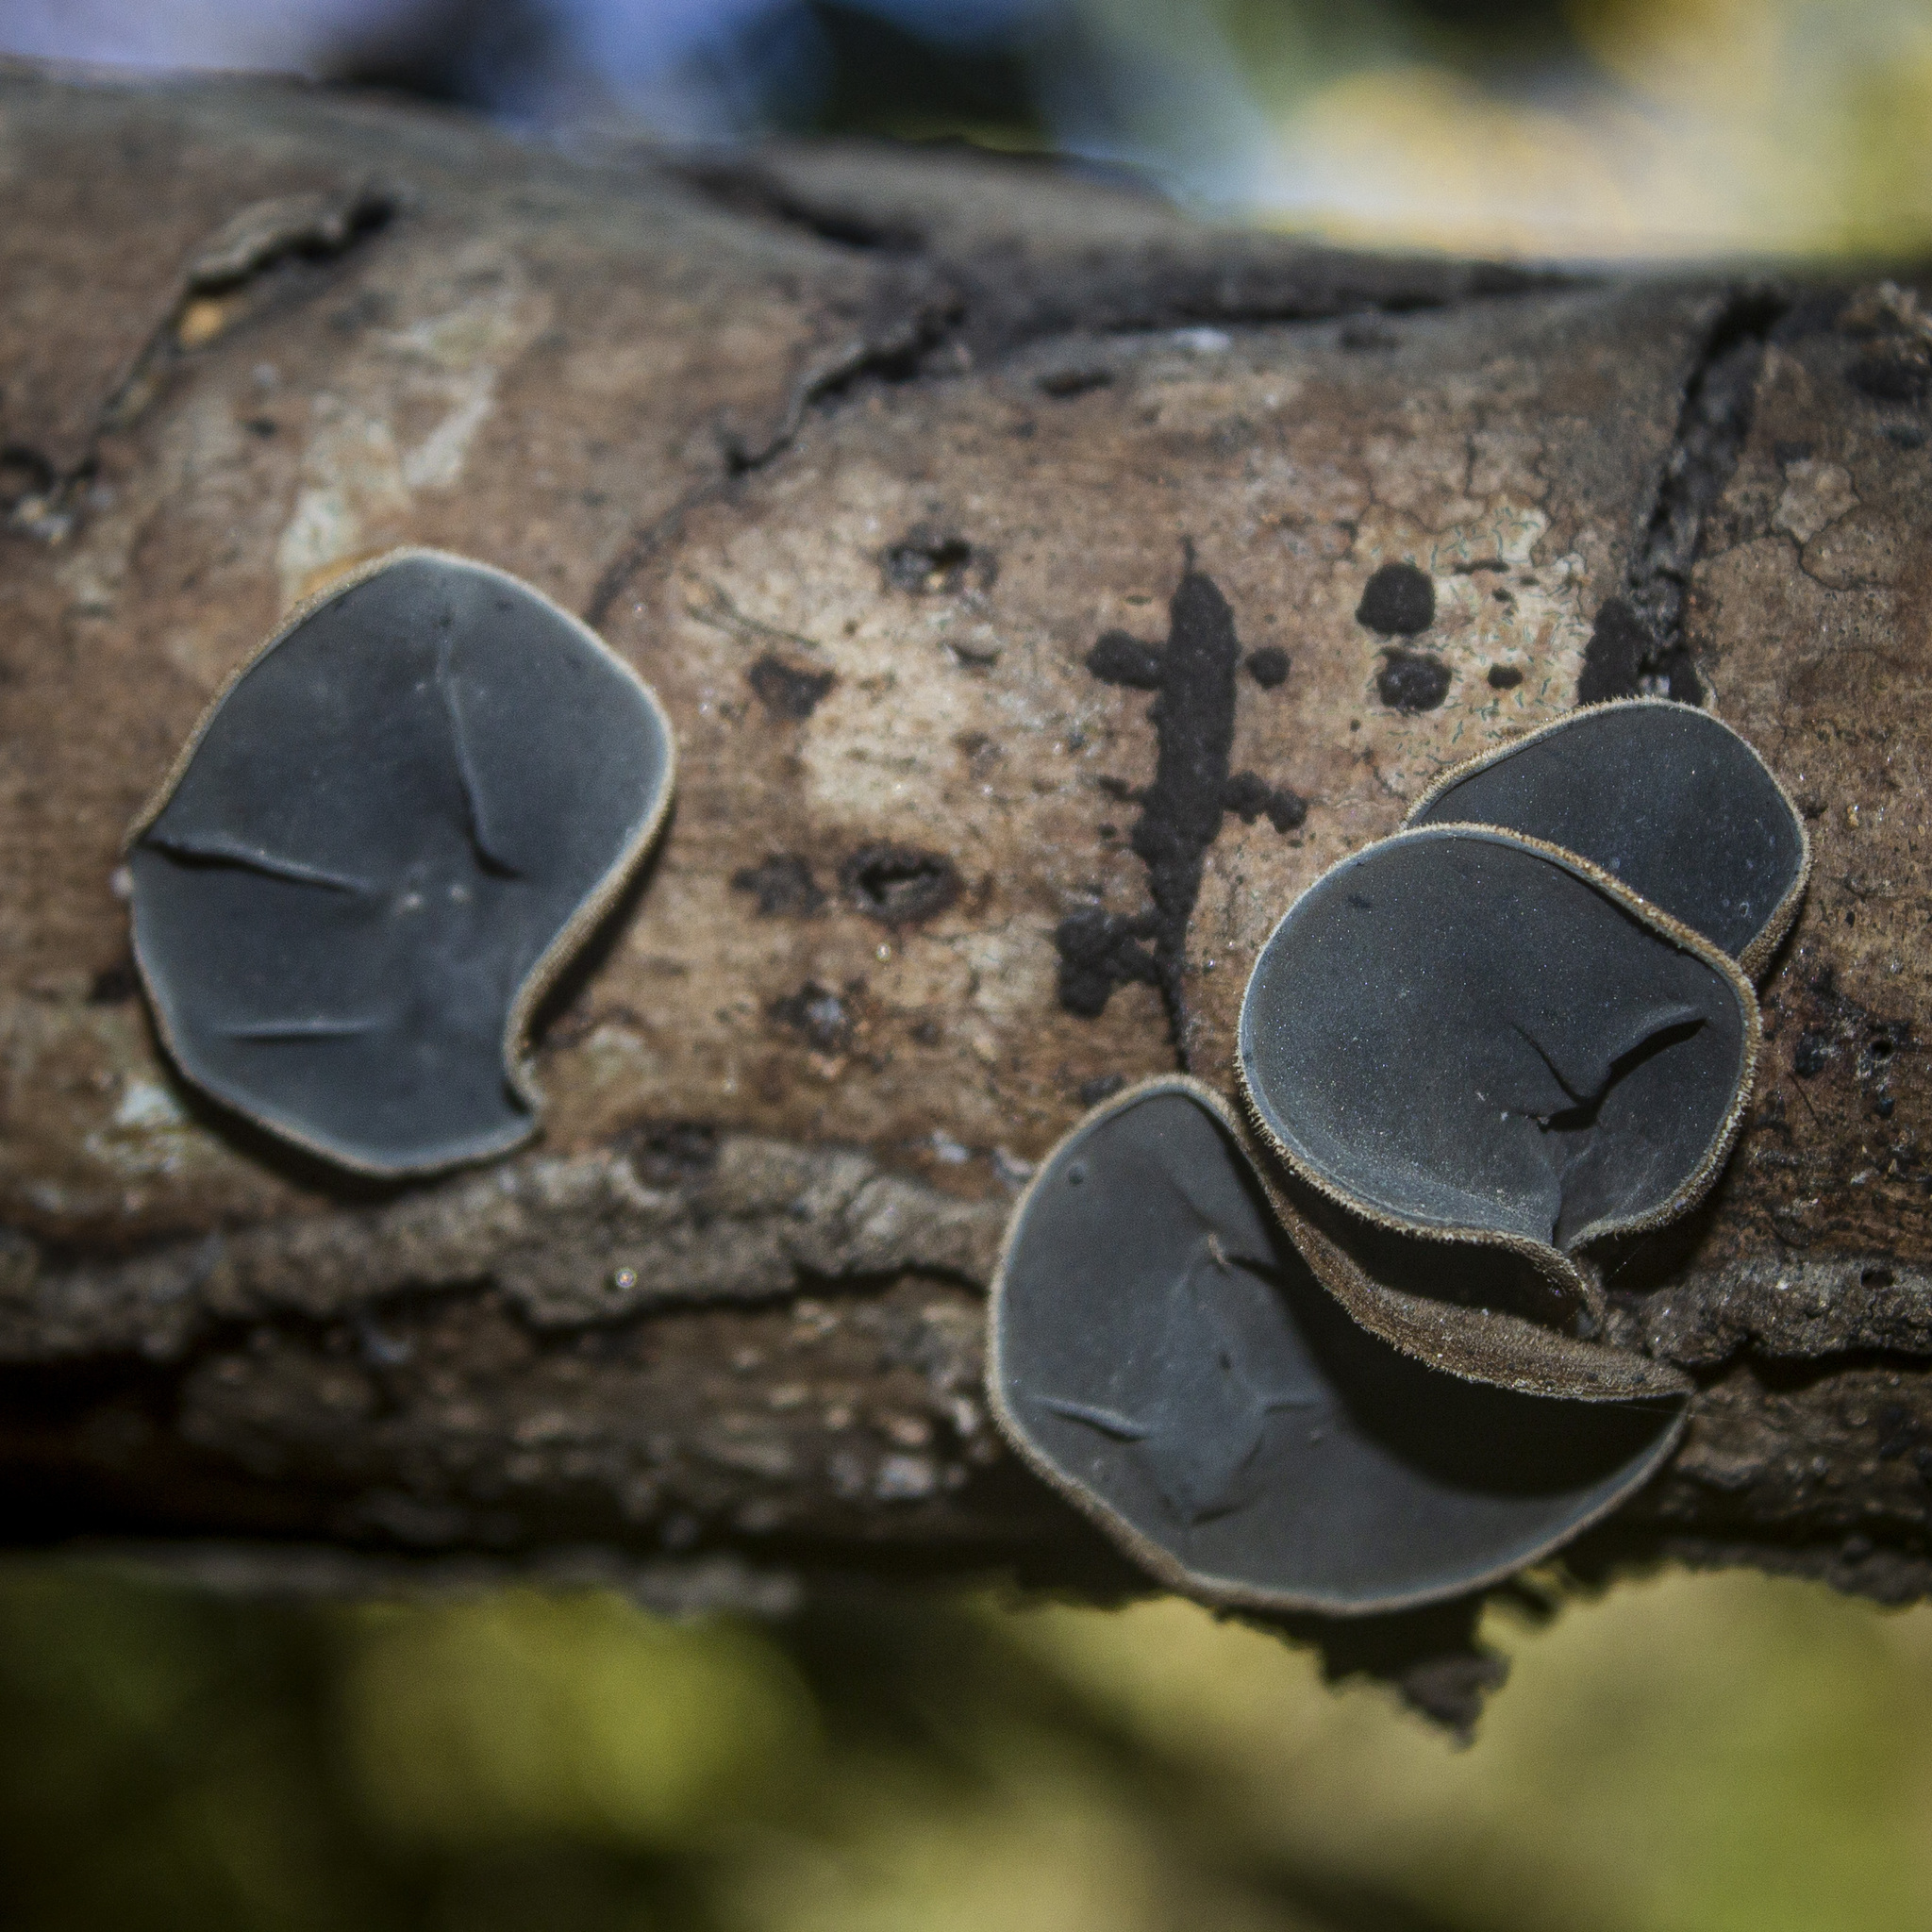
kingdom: Fungi
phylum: Basidiomycota
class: Agaricomycetes
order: Auriculariales
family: Auriculariaceae
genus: Auricularia
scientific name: Auricularia nigricans
